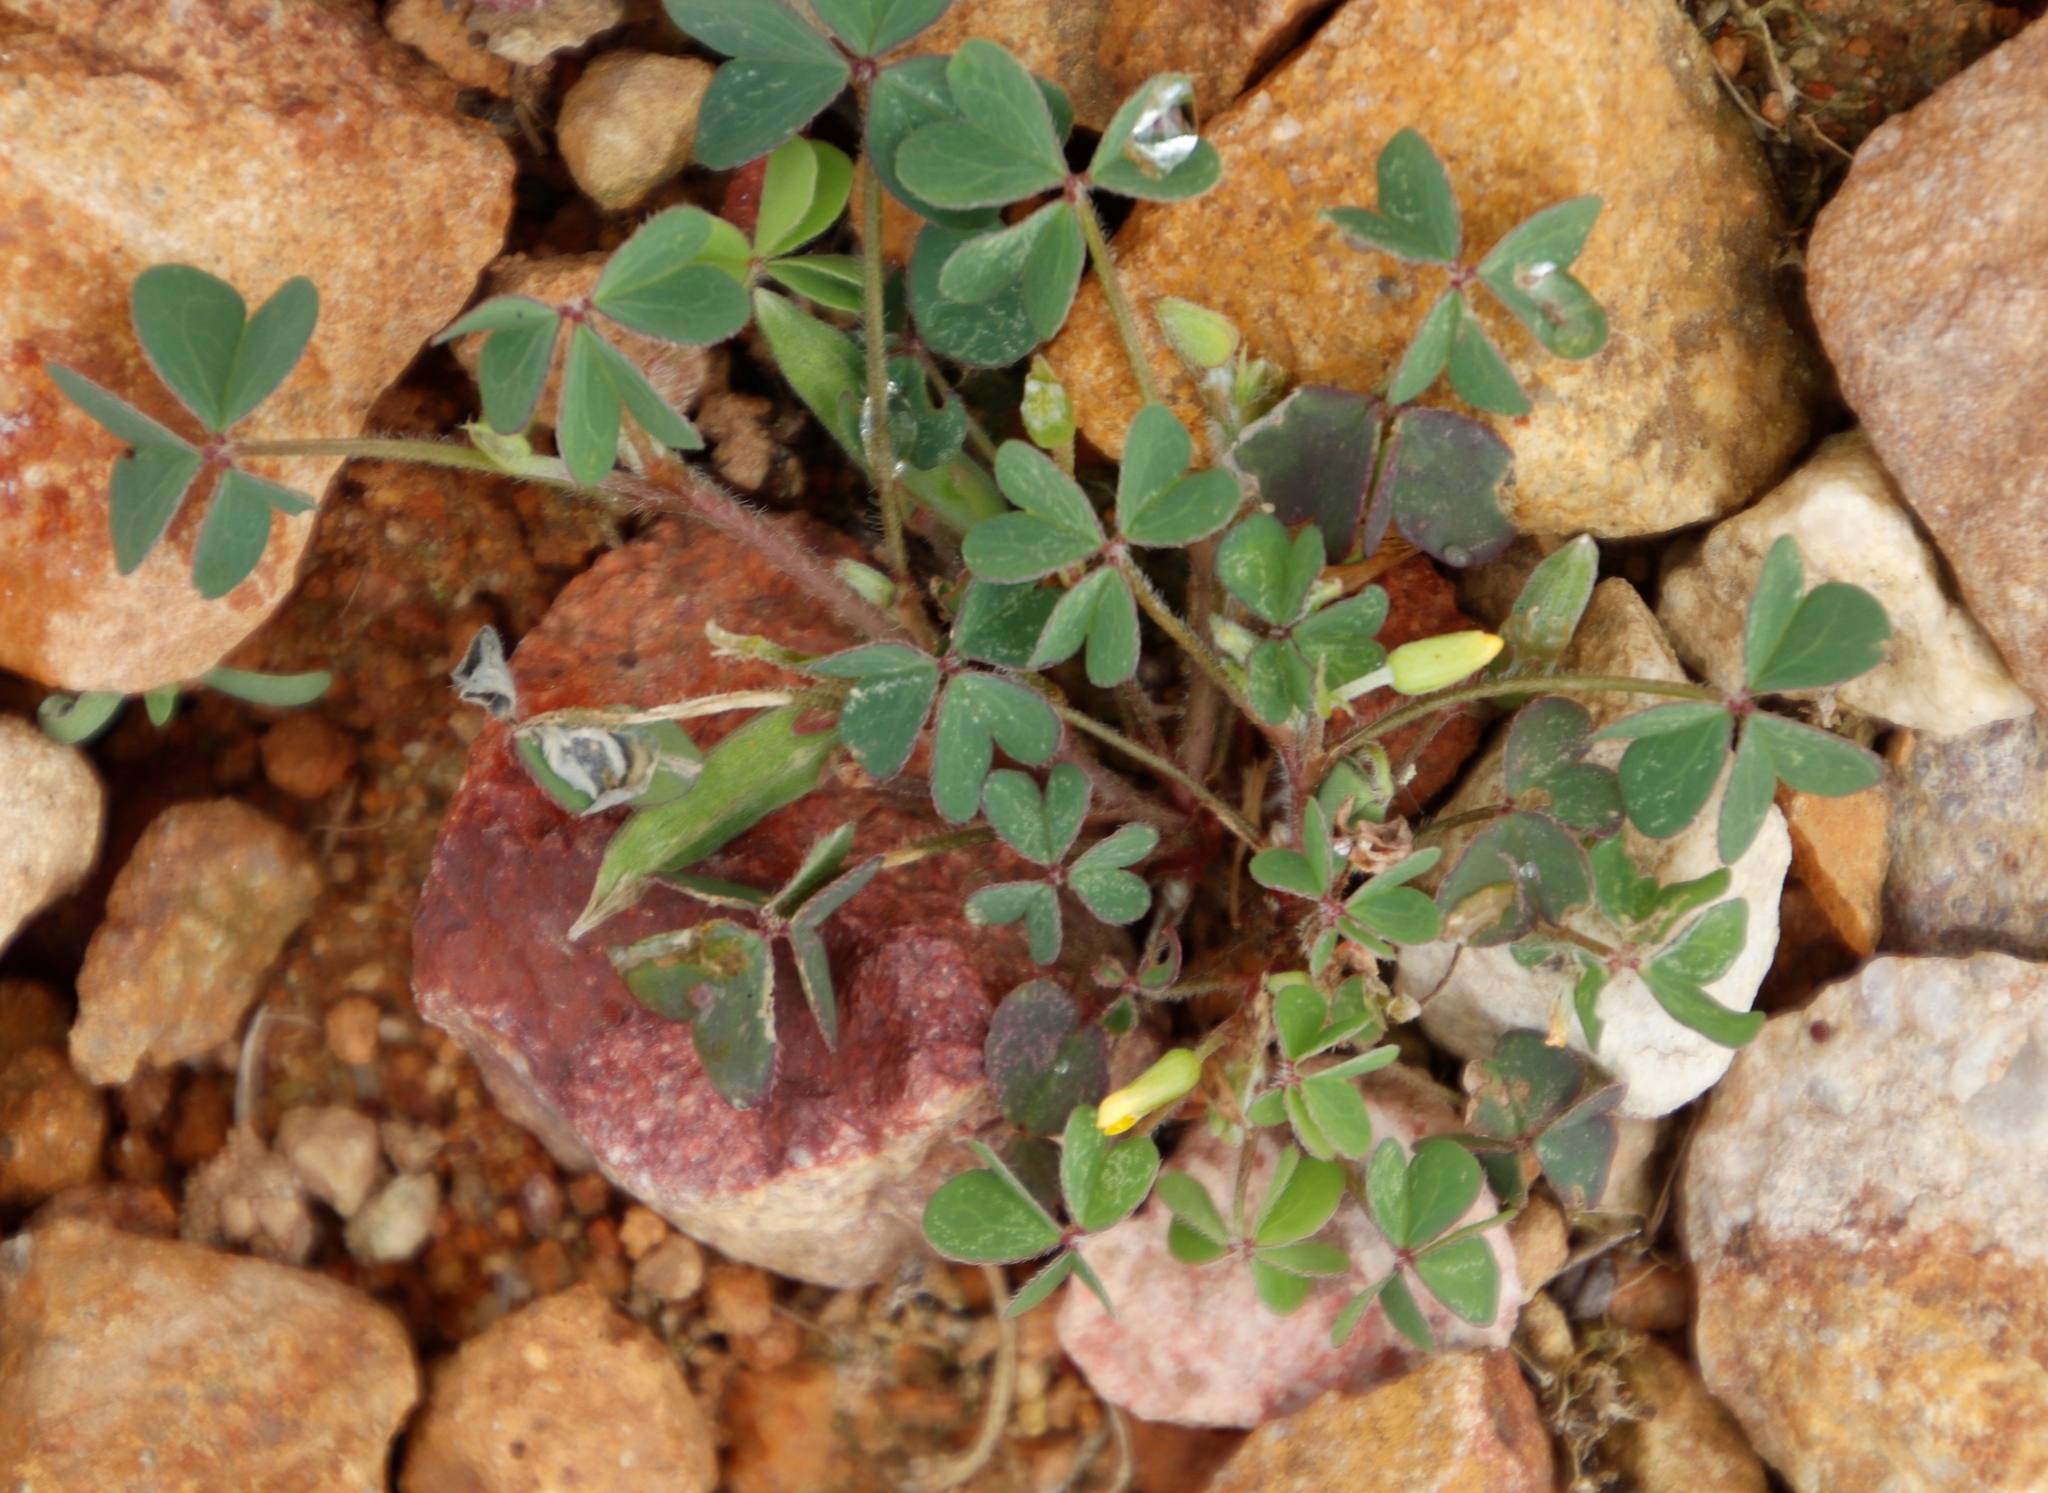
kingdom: Plantae
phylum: Tracheophyta
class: Magnoliopsida
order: Oxalidales
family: Oxalidaceae
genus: Oxalis
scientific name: Oxalis corniculata
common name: Procumbent yellow-sorrel
